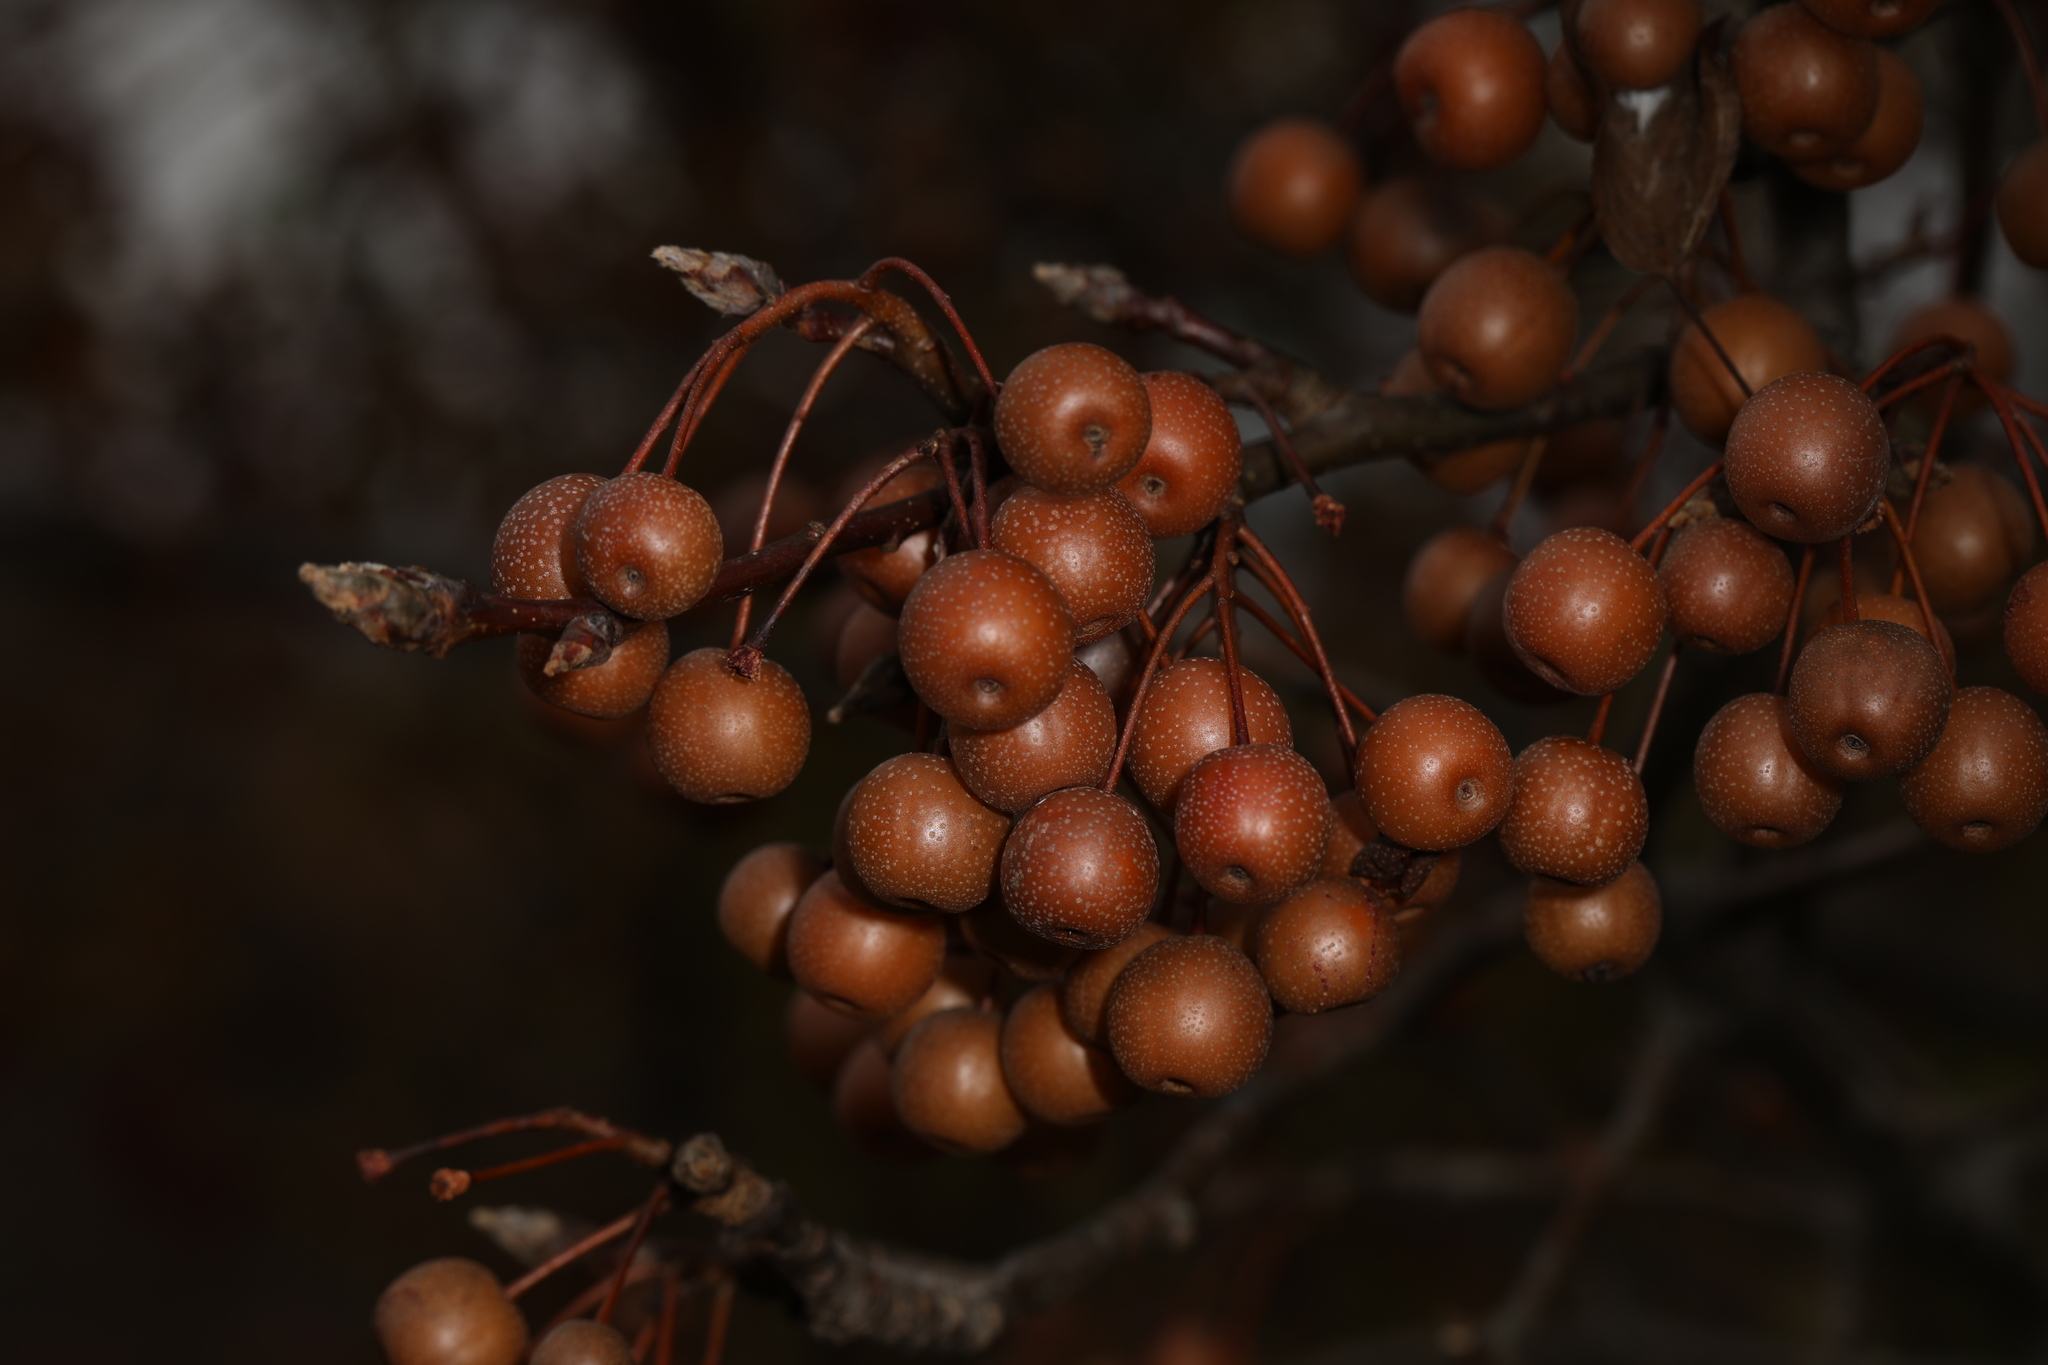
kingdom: Plantae
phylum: Tracheophyta
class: Magnoliopsida
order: Rosales
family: Rosaceae
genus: Pyrus
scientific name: Pyrus calleryana
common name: Callery pear
